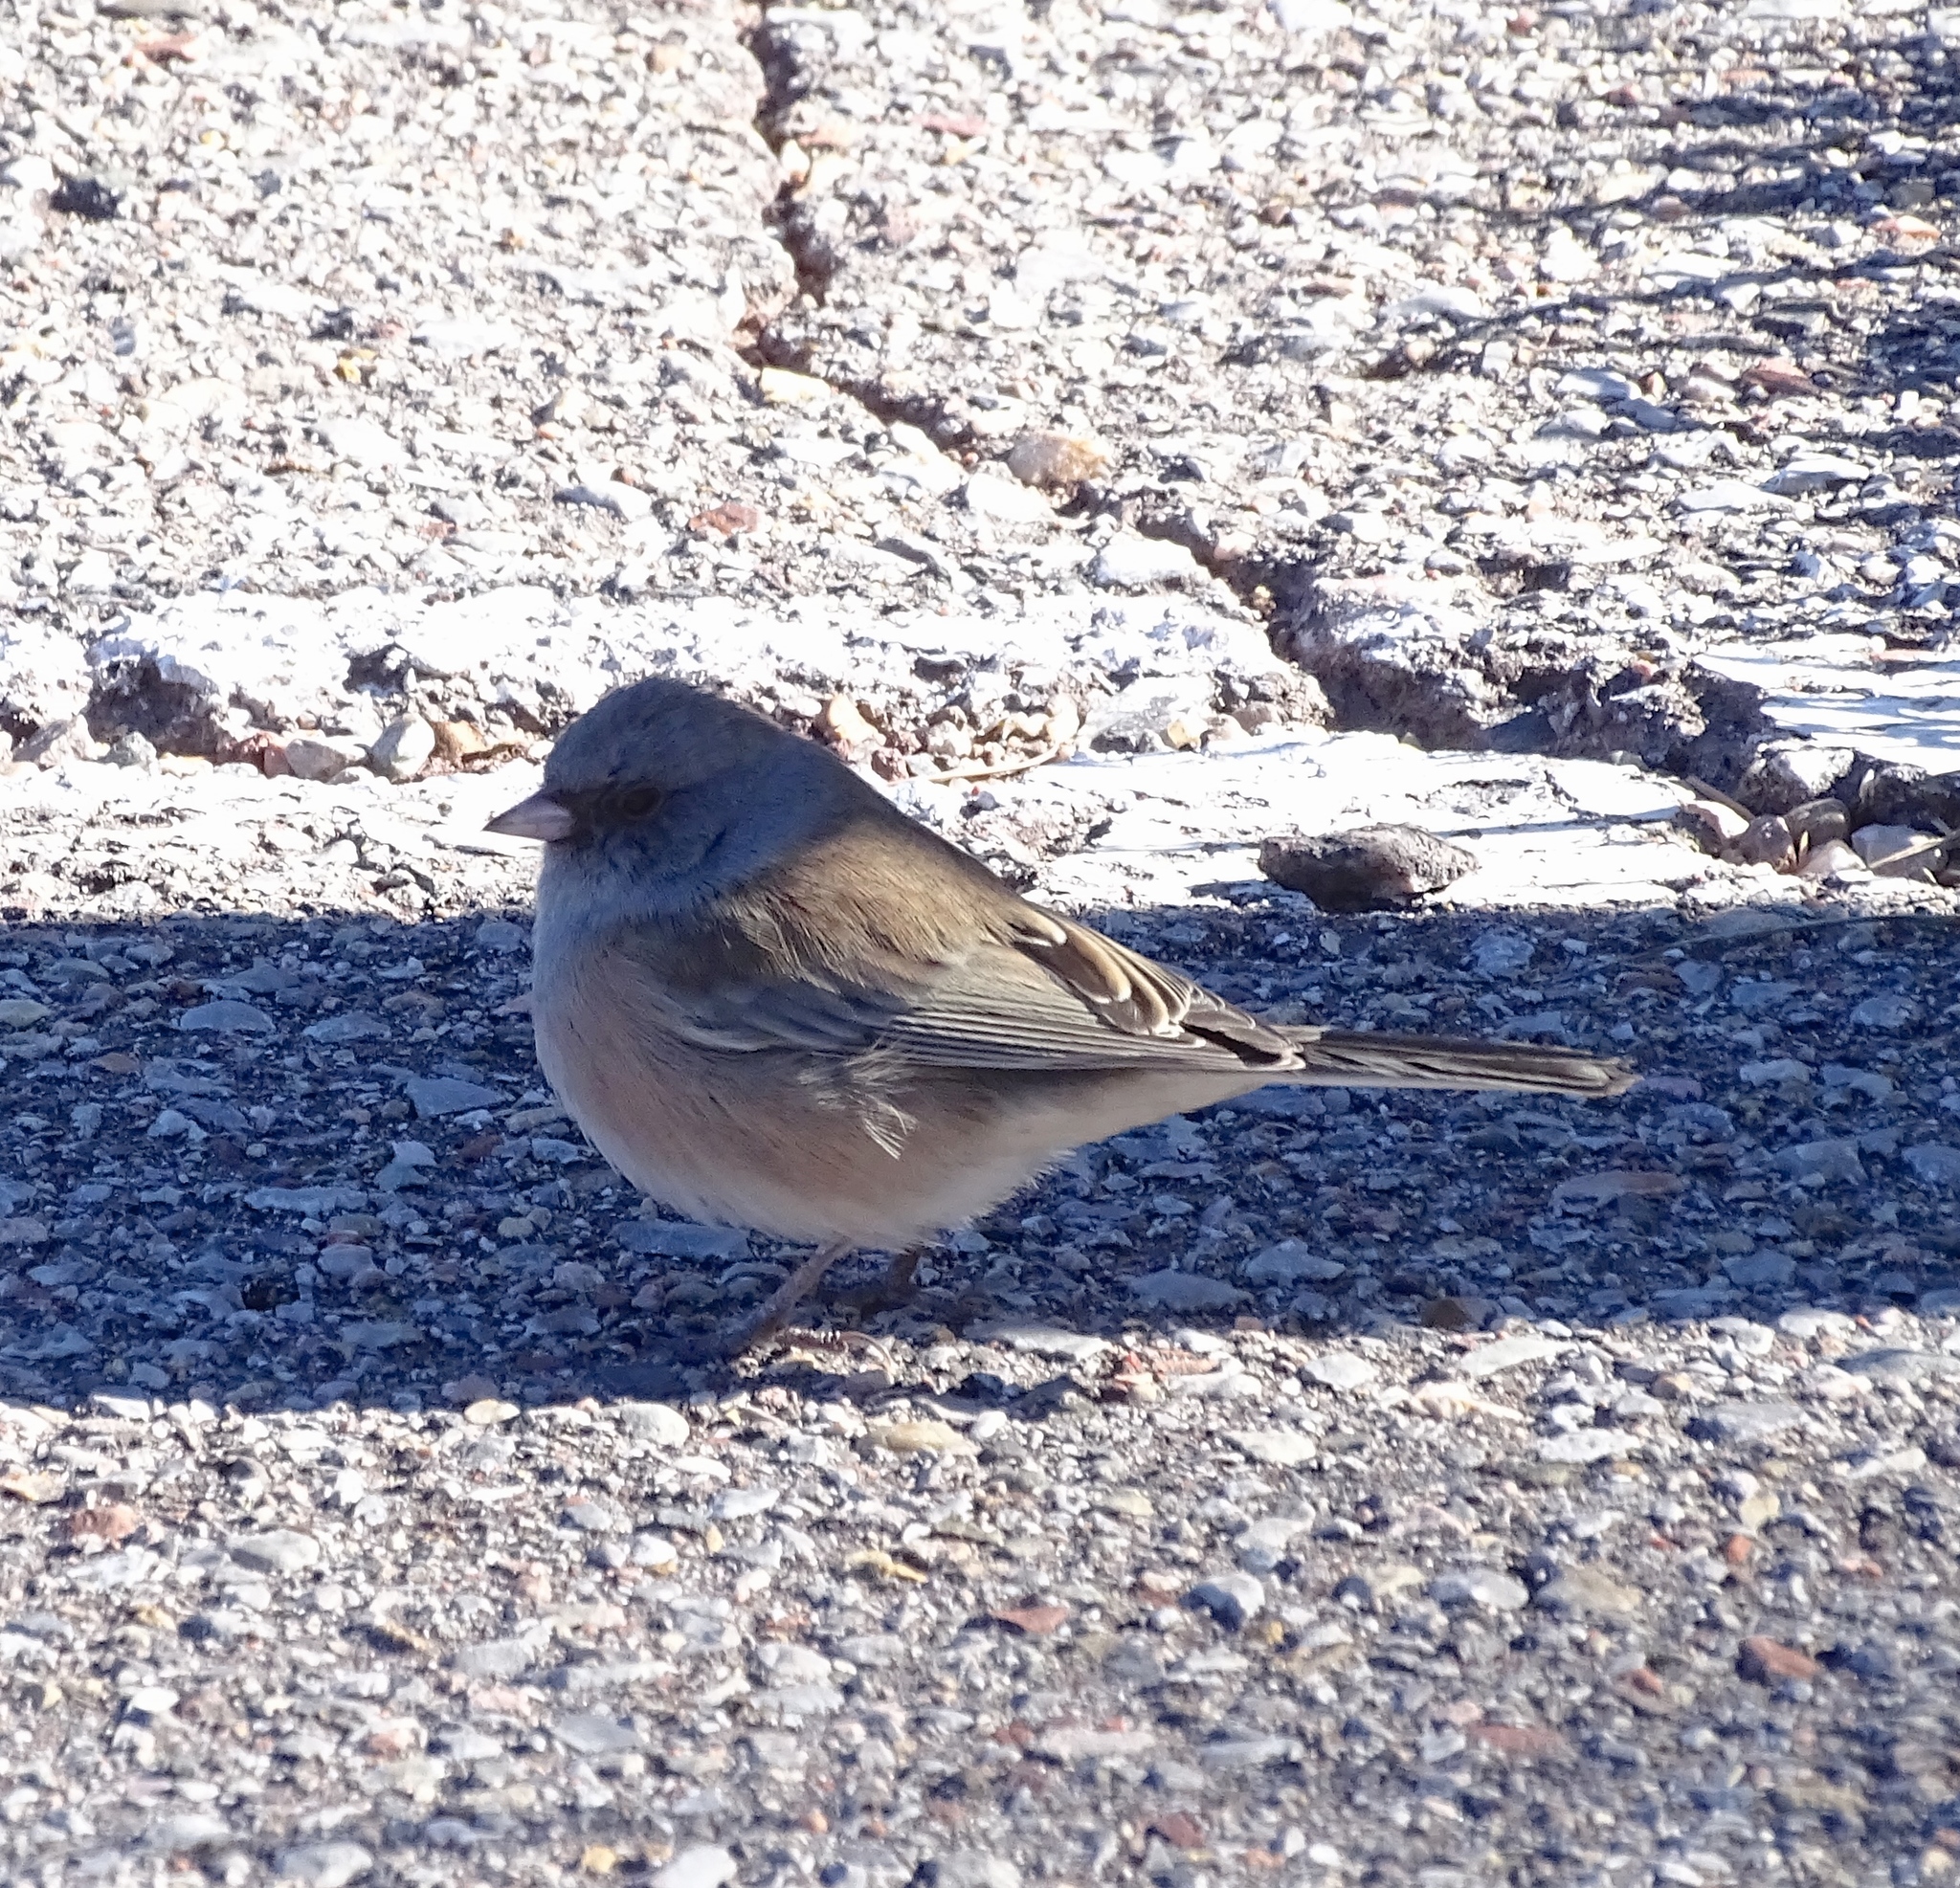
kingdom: Animalia
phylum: Chordata
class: Aves
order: Passeriformes
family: Passerellidae
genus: Junco
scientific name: Junco hyemalis
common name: Dark-eyed junco
